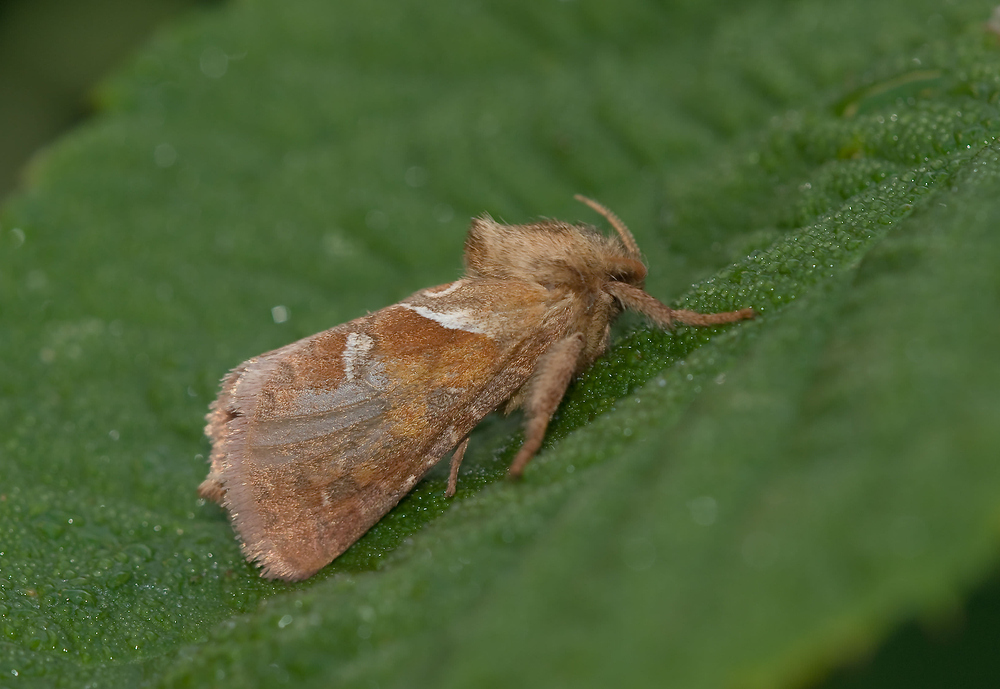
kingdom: Animalia
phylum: Arthropoda
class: Insecta
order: Lepidoptera
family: Hepialidae
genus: Triodia
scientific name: Triodia sylvina
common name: Orange swift
